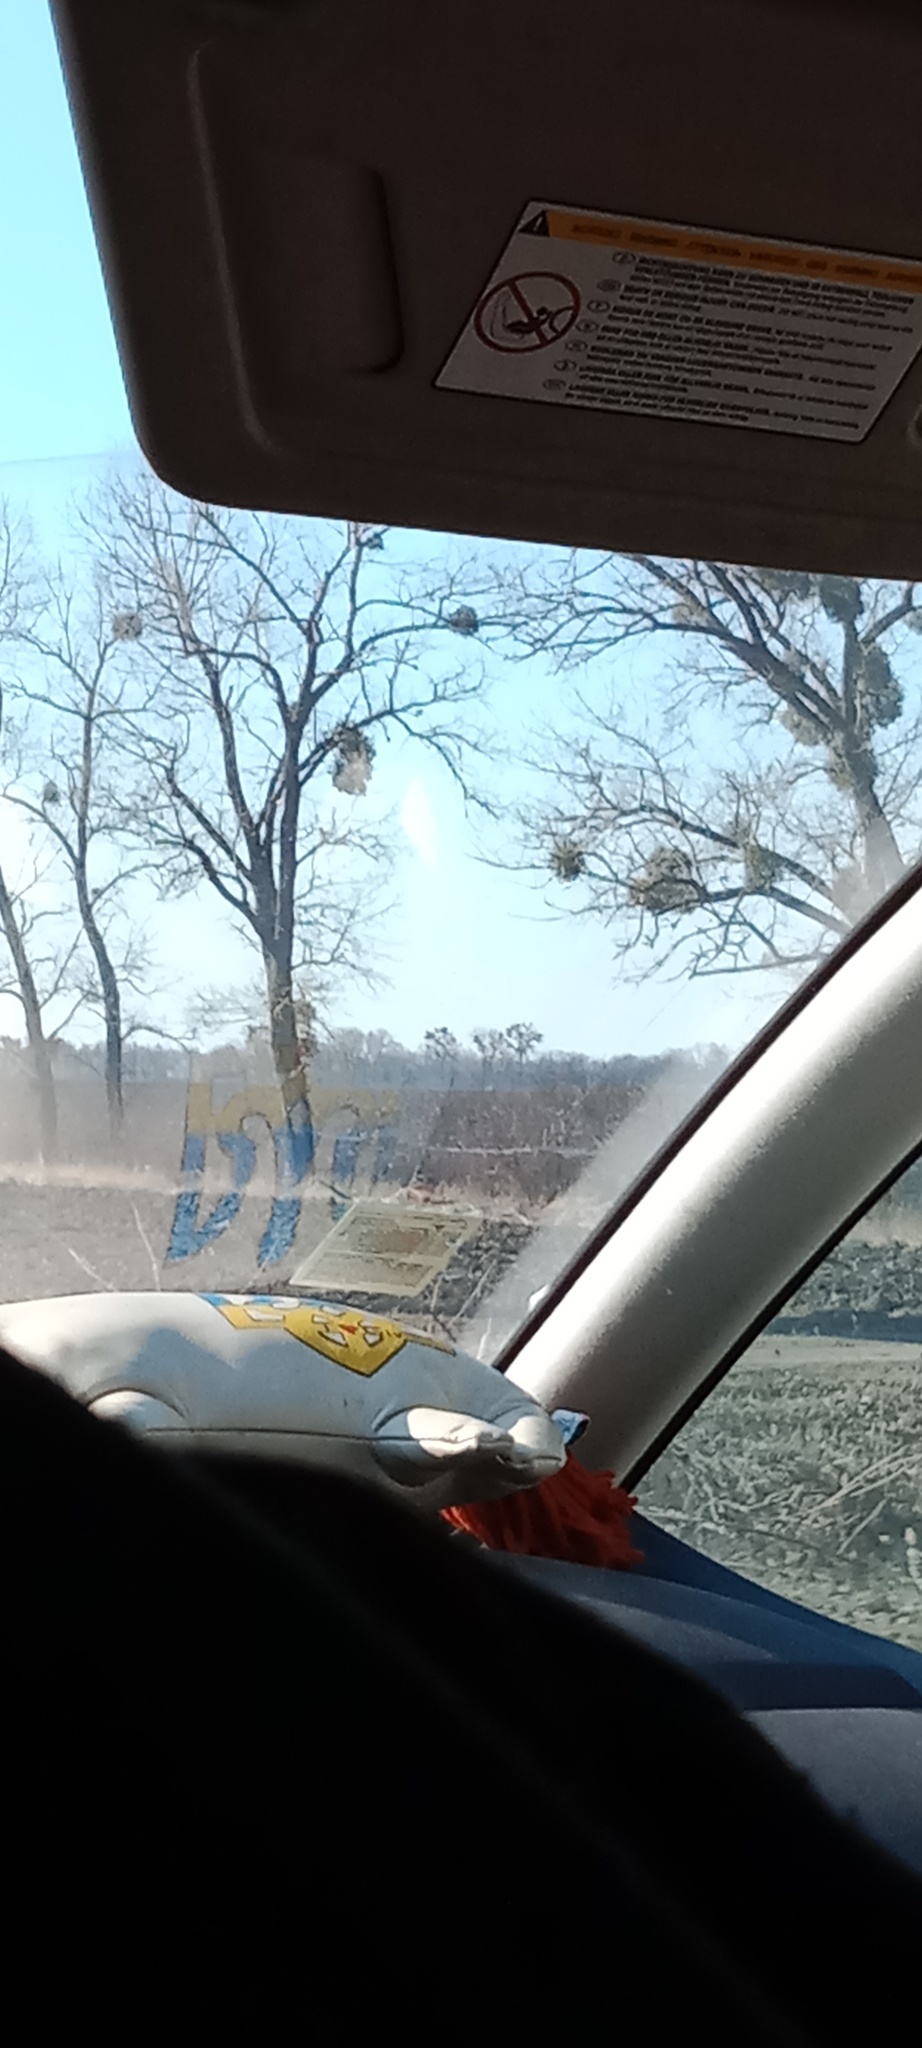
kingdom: Plantae
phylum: Tracheophyta
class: Magnoliopsida
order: Santalales
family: Viscaceae
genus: Viscum
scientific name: Viscum album
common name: Mistletoe
